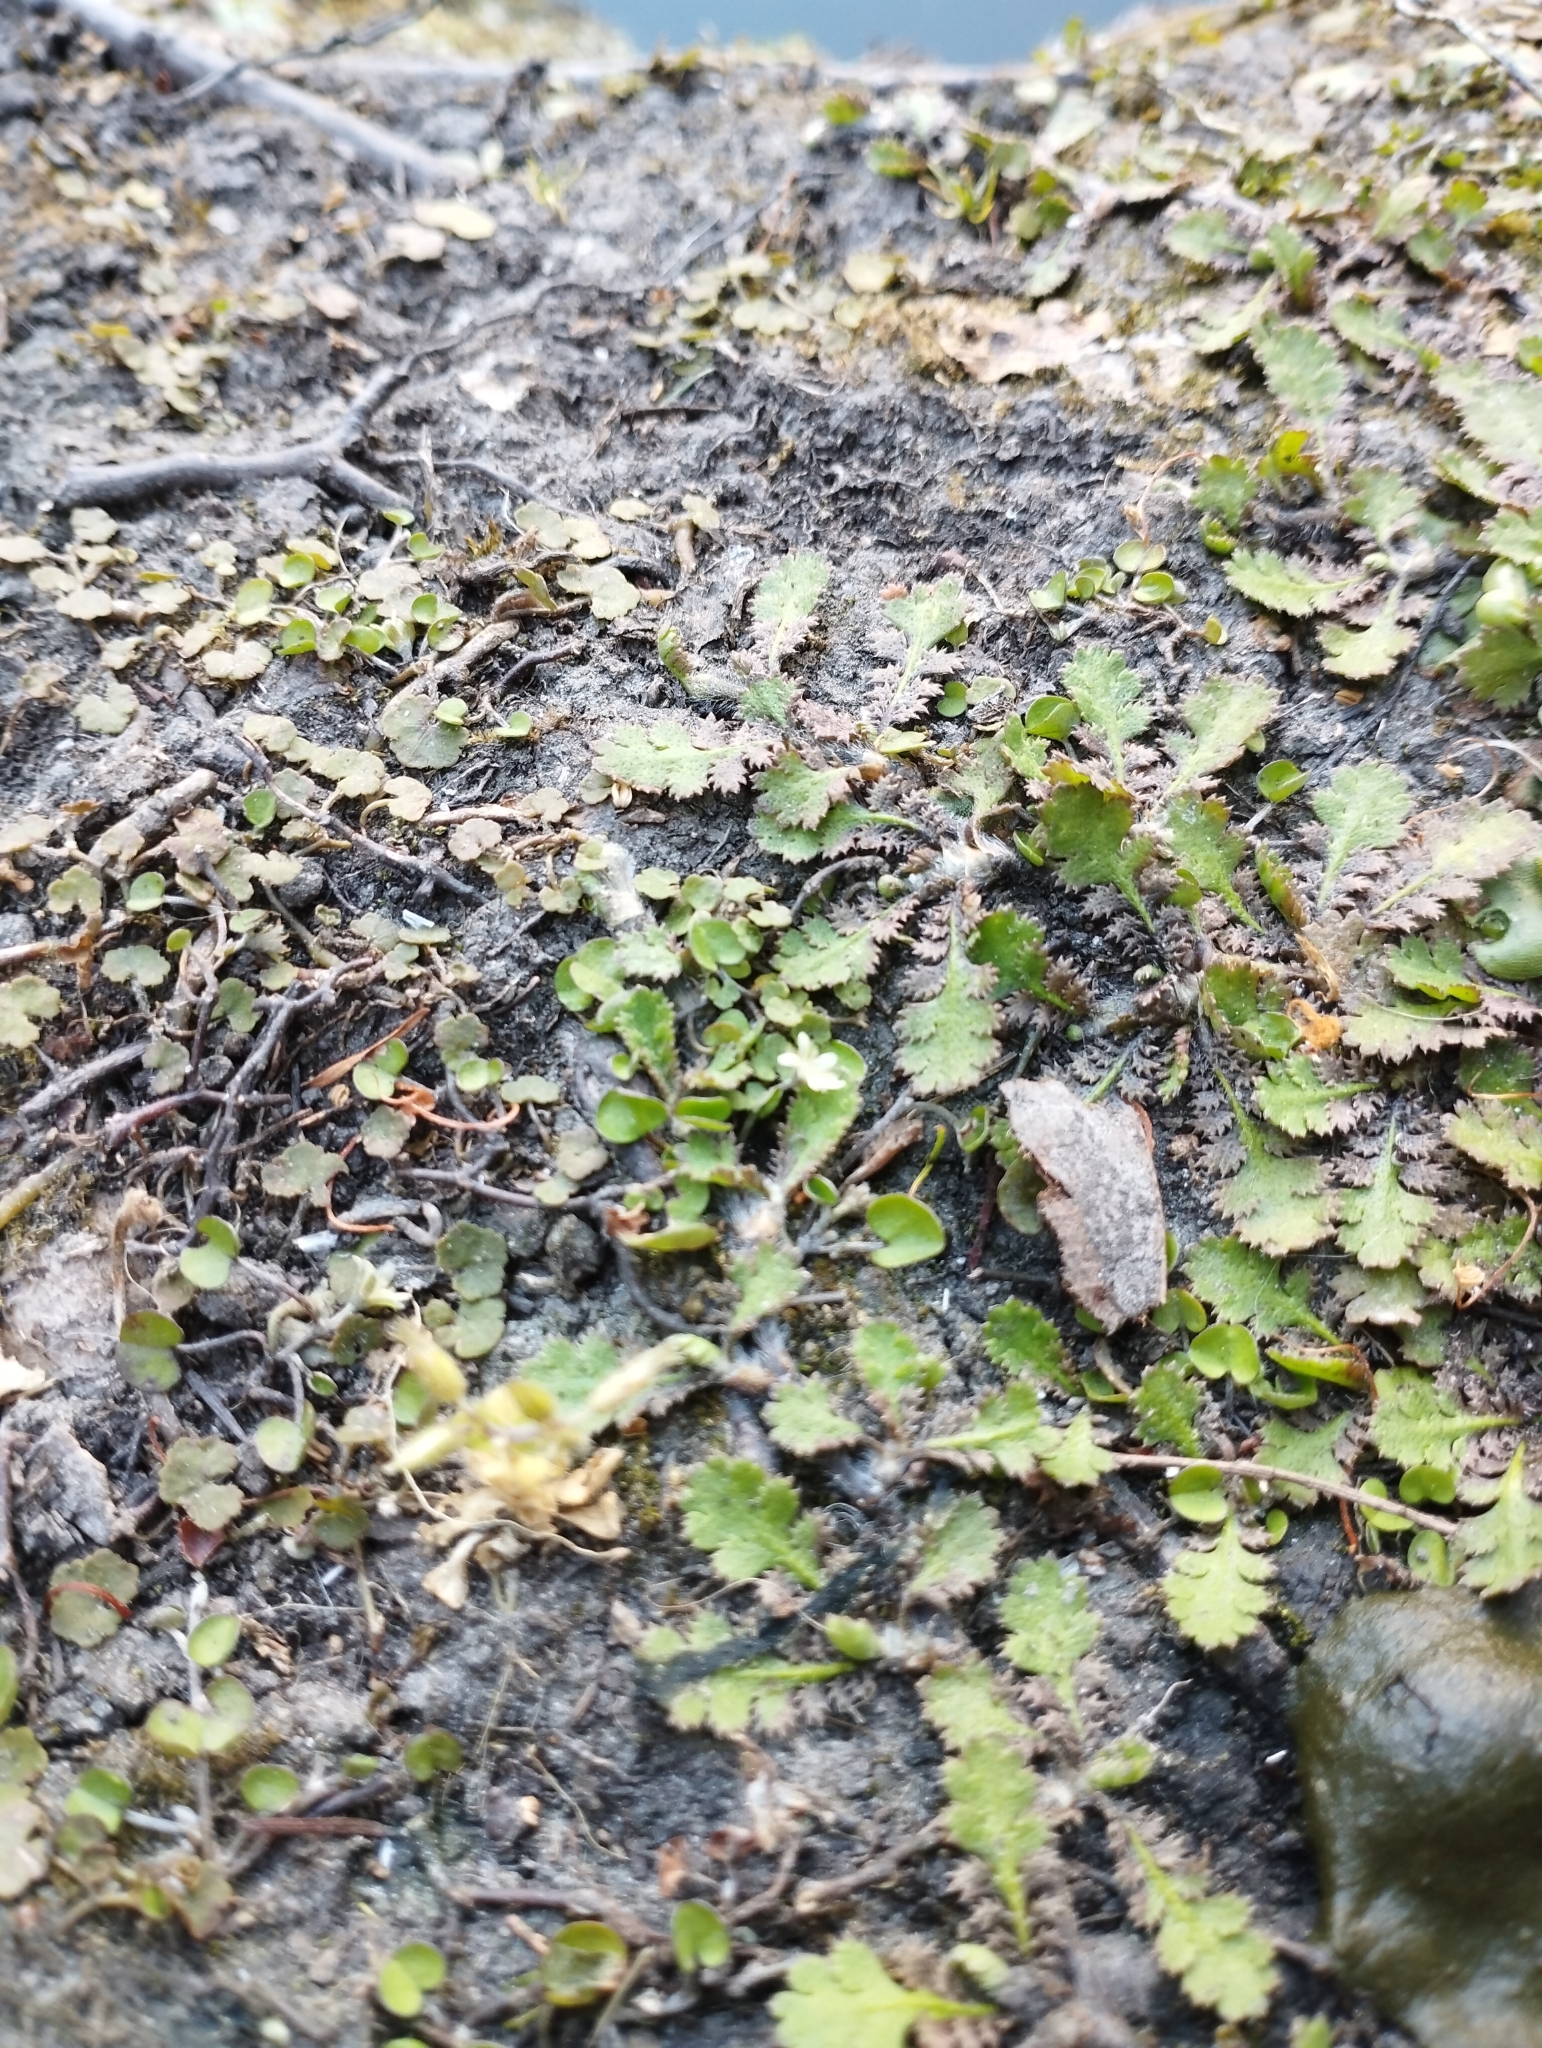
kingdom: Plantae
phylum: Tracheophyta
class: Magnoliopsida
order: Asterales
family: Asteraceae
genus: Leptinella
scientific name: Leptinella squalida
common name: New zealand brass-buttons
